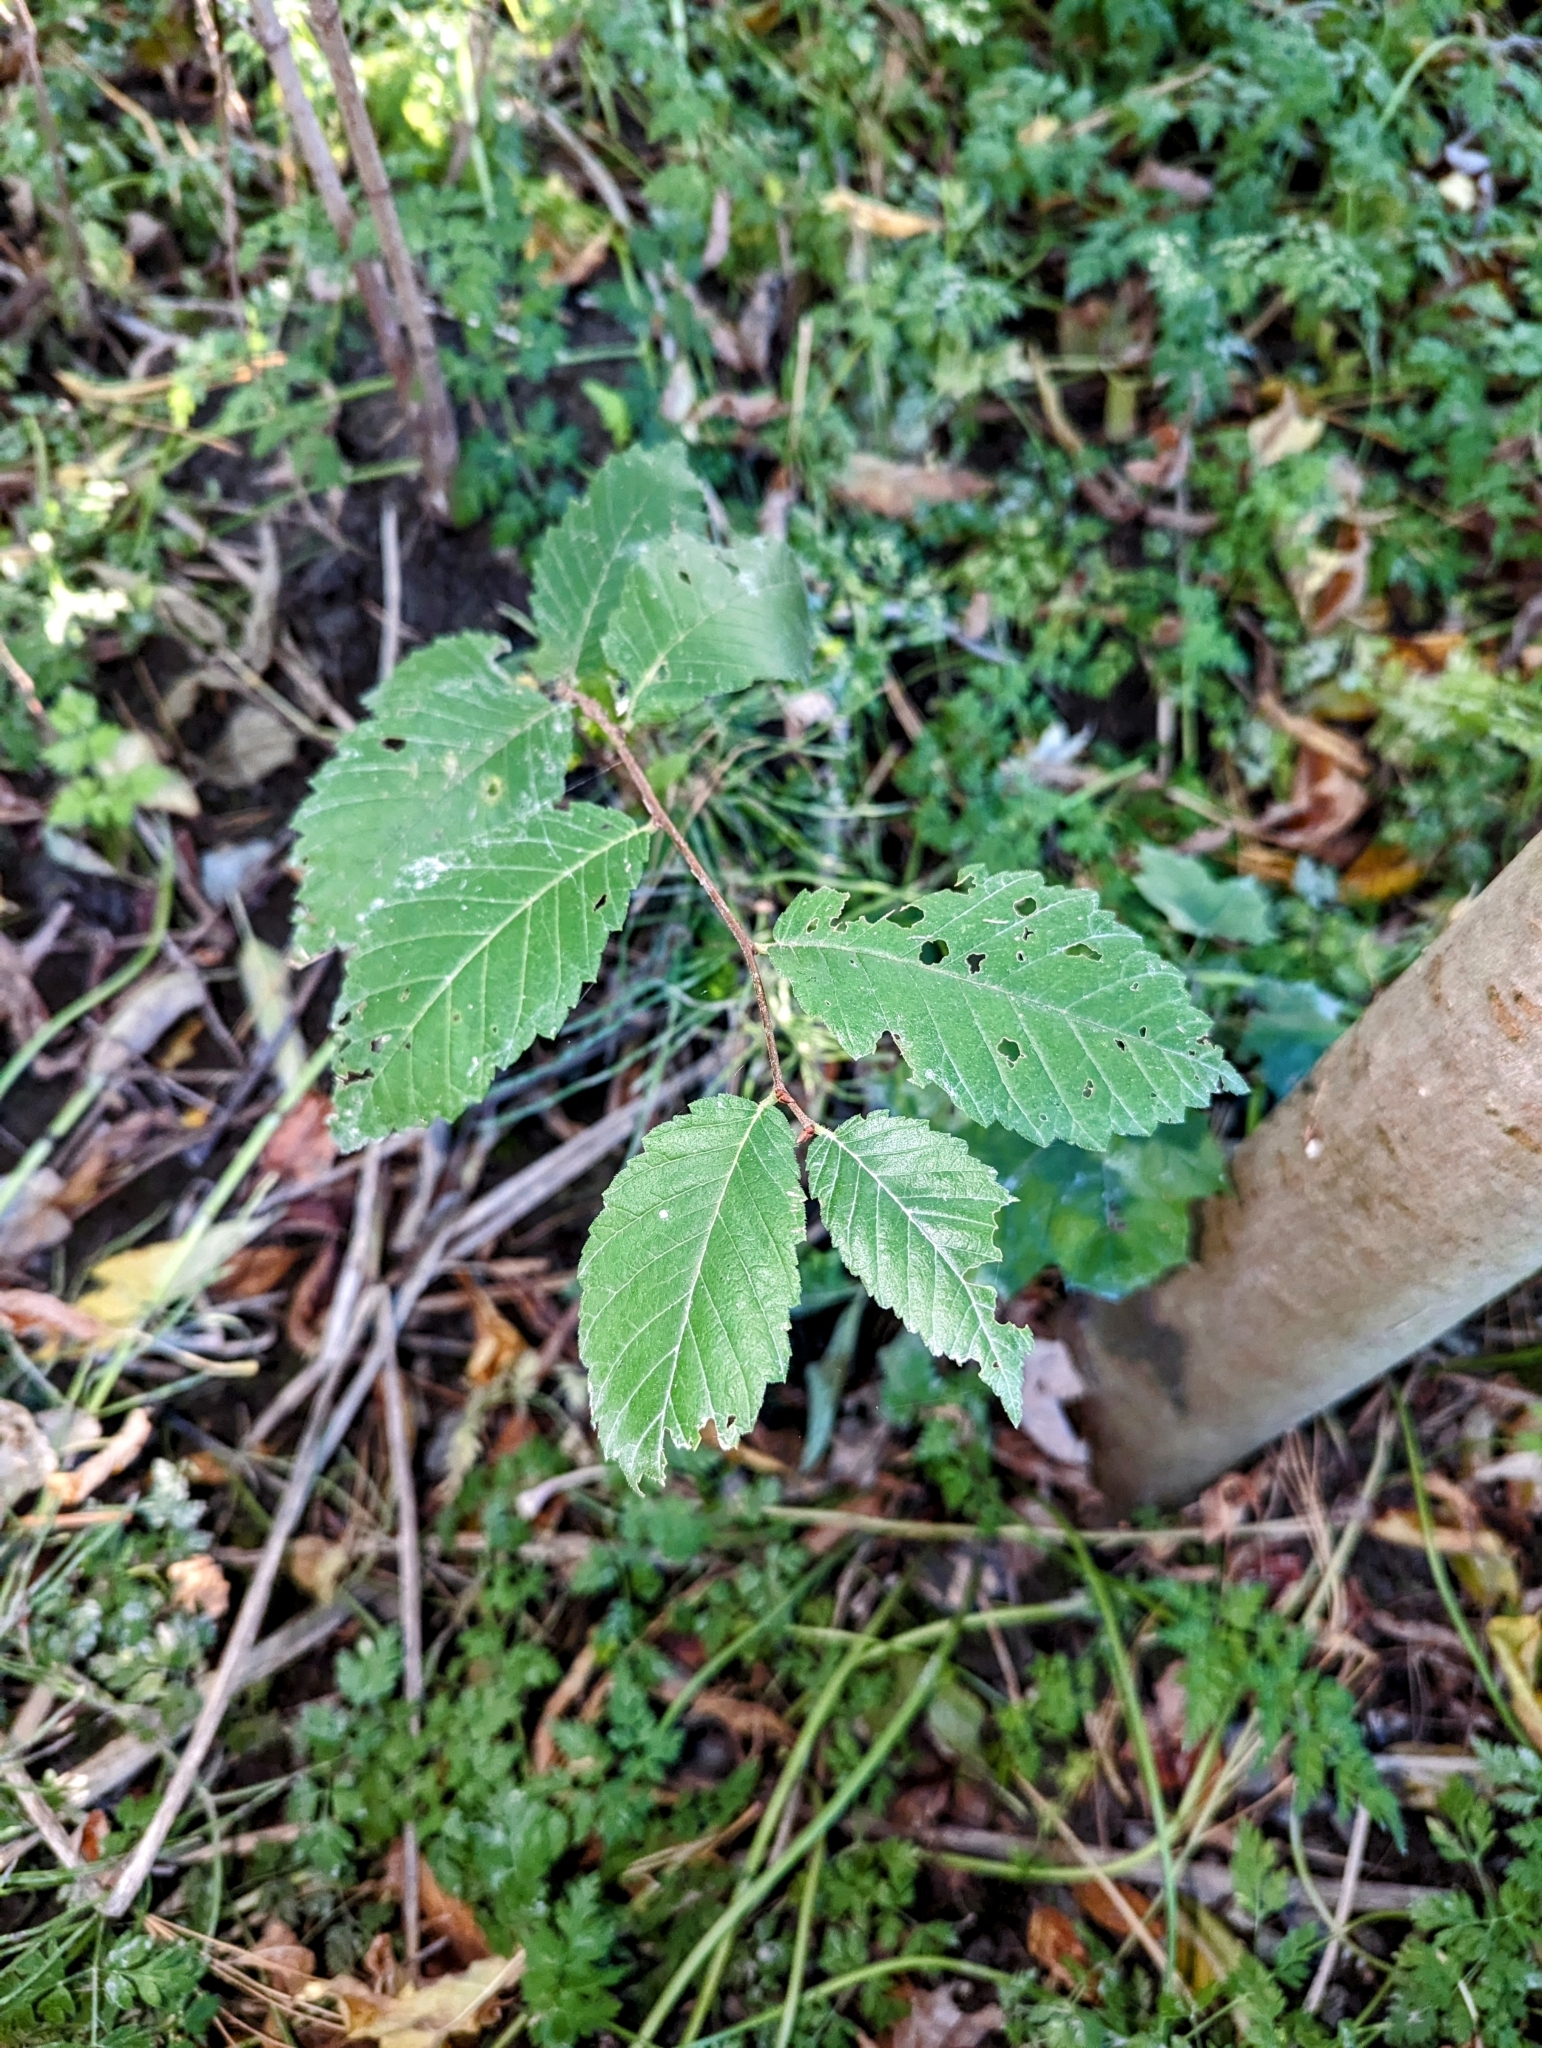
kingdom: Plantae
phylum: Tracheophyta
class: Magnoliopsida
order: Rosales
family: Ulmaceae
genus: Ulmus
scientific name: Ulmus americana
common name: American elm
